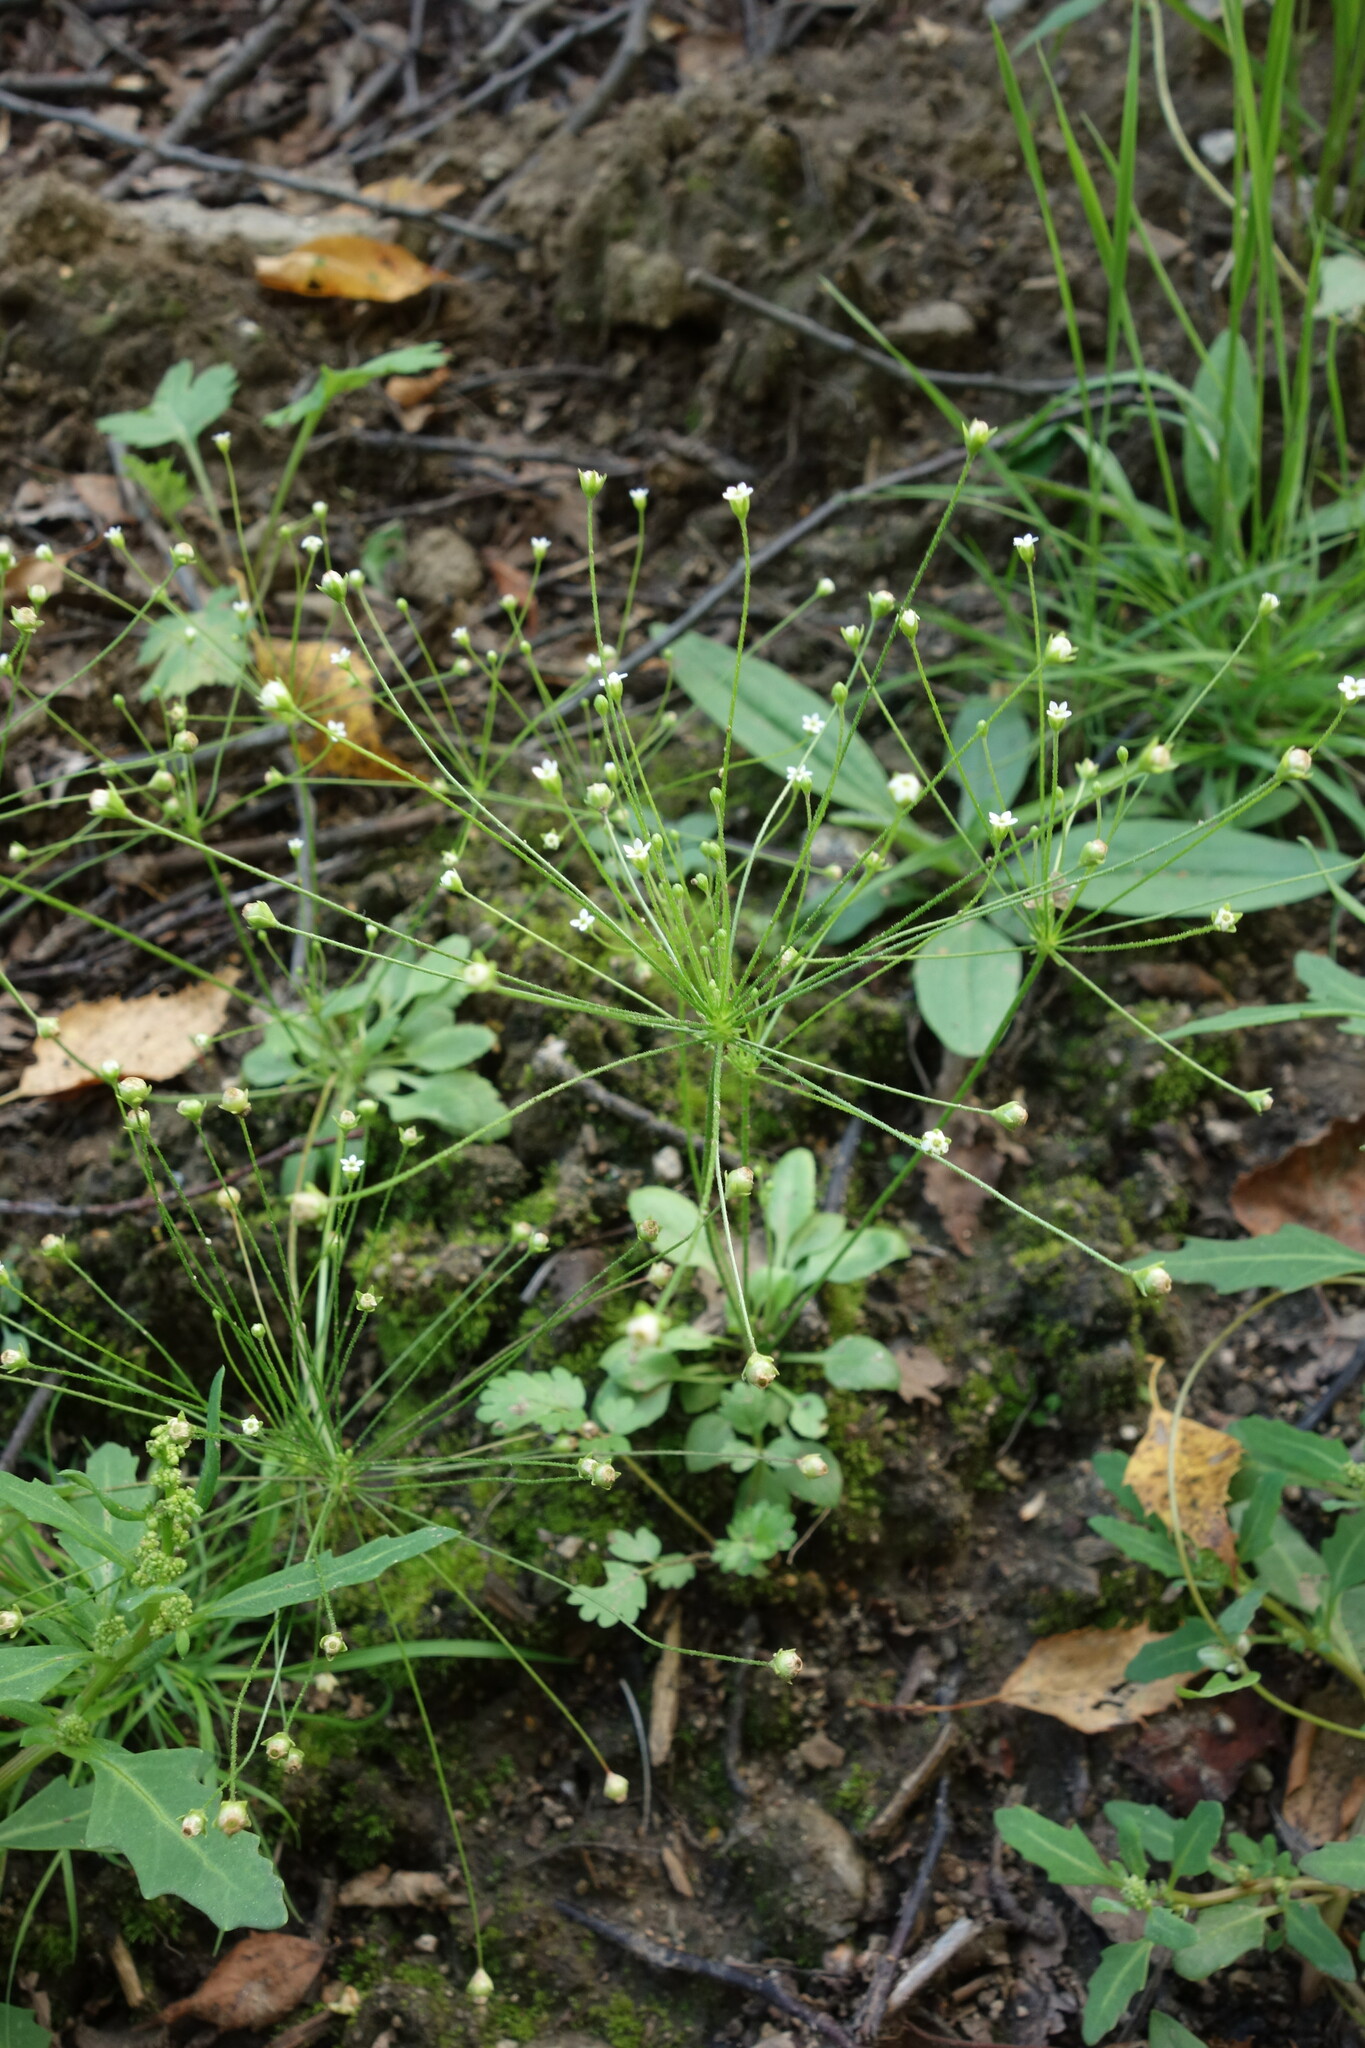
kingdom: Plantae
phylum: Tracheophyta
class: Magnoliopsida
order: Ericales
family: Primulaceae
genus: Androsace
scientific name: Androsace filiformis
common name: Filiform rock jasmine
